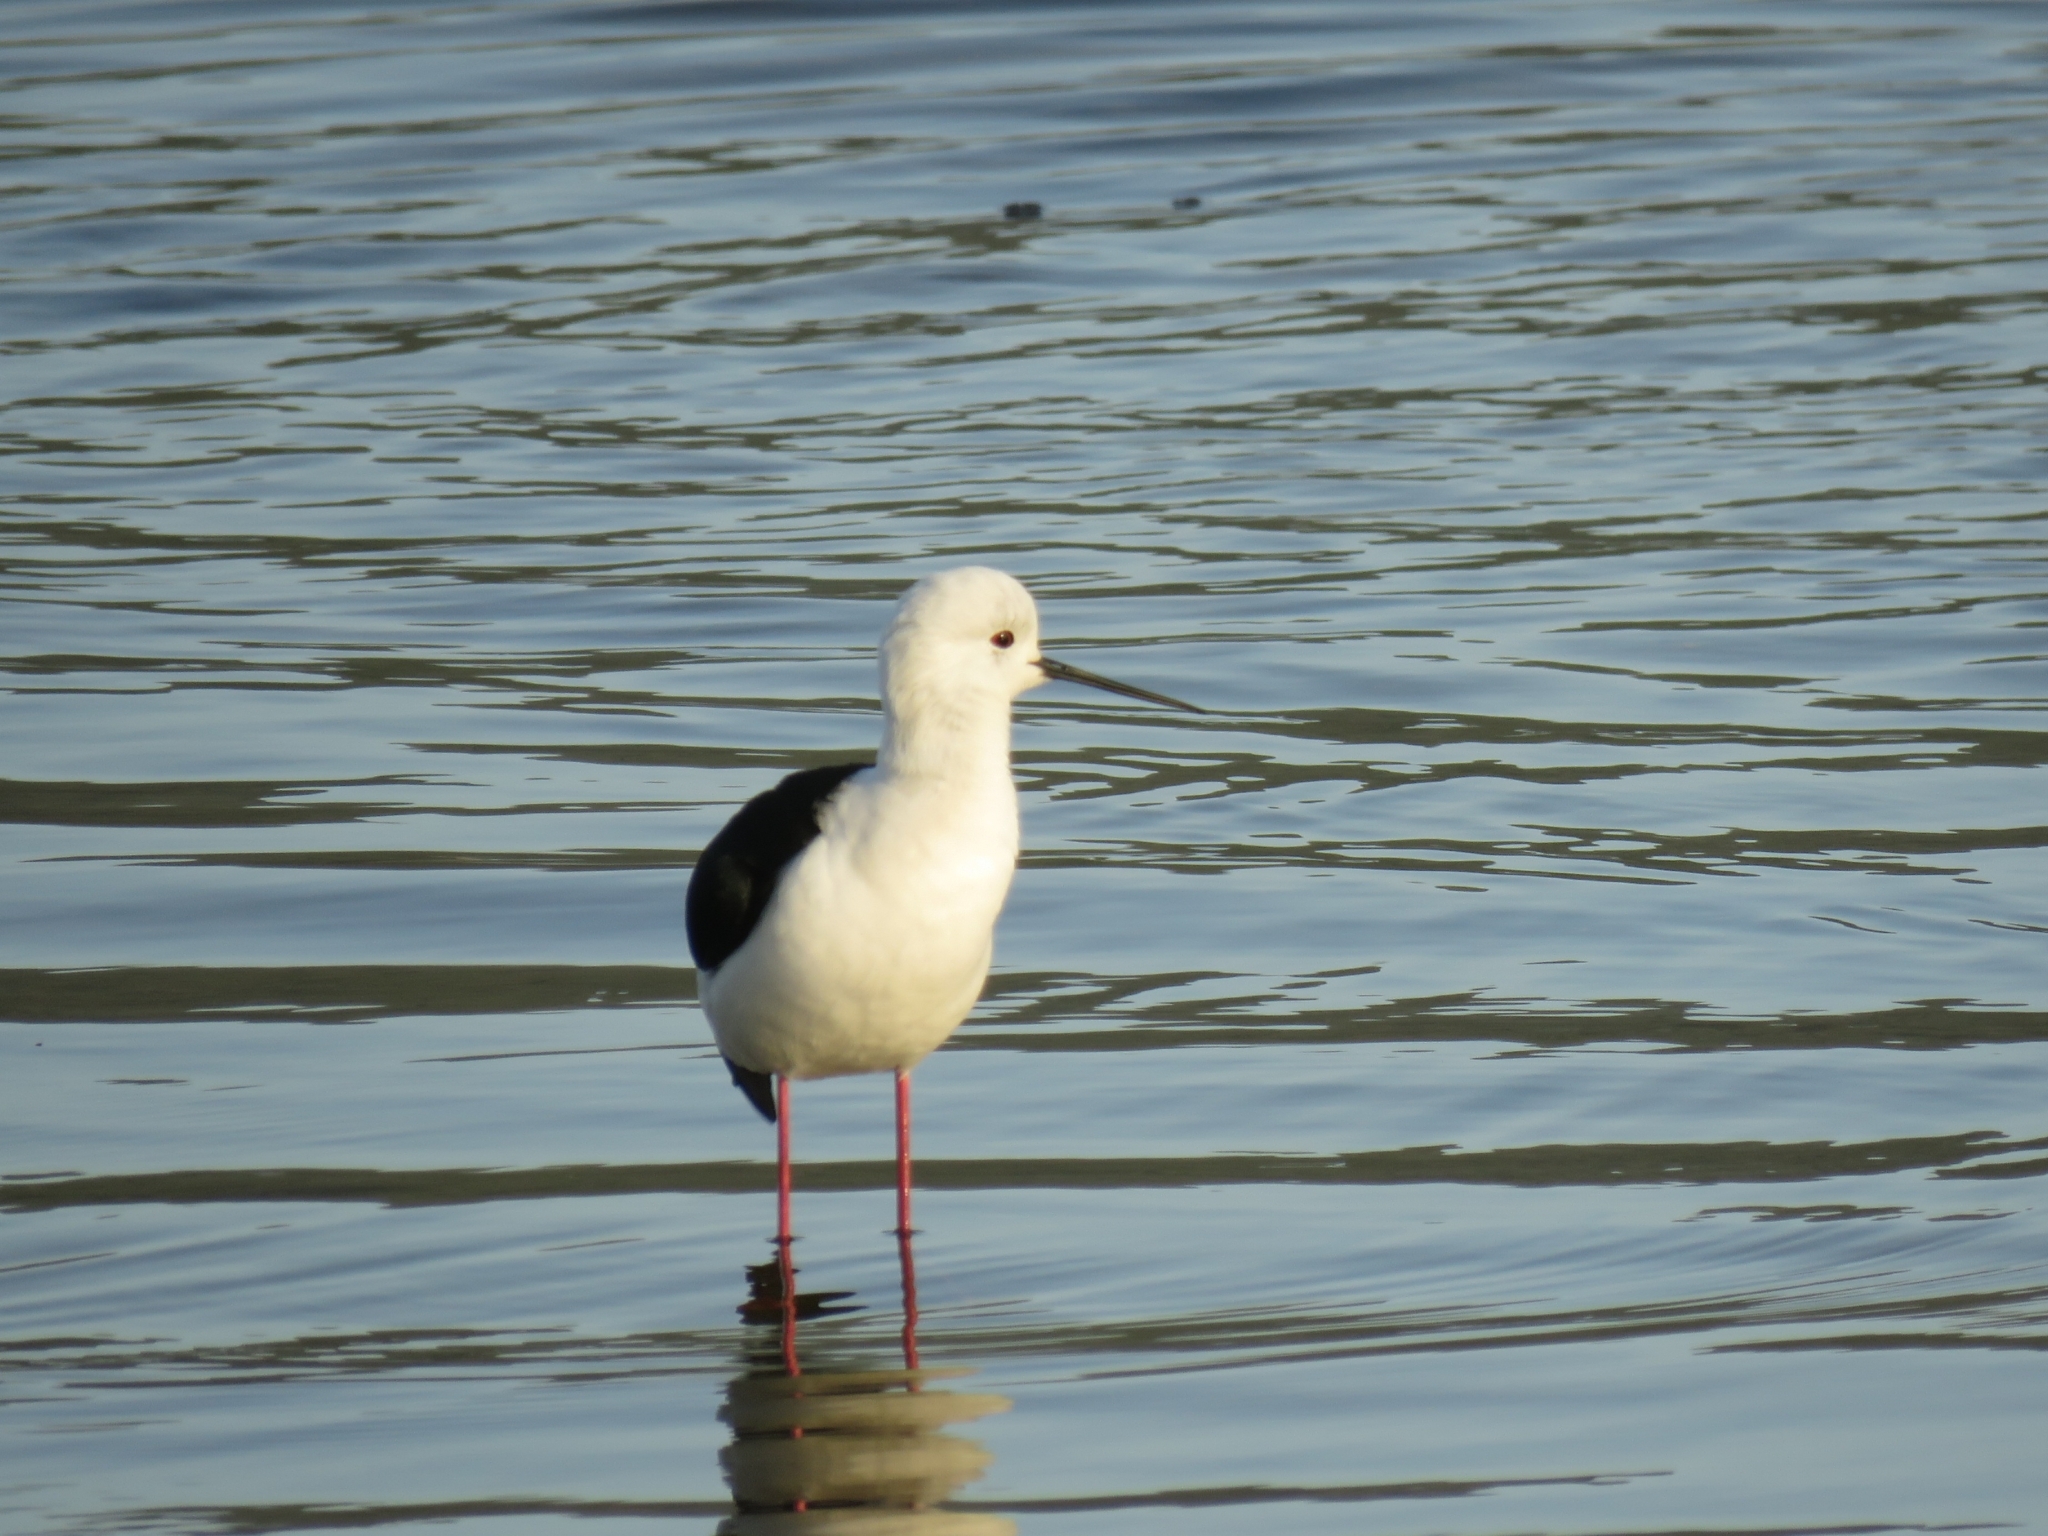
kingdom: Animalia
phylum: Chordata
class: Aves
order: Charadriiformes
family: Recurvirostridae
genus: Himantopus
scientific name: Himantopus himantopus
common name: Black-winged stilt
